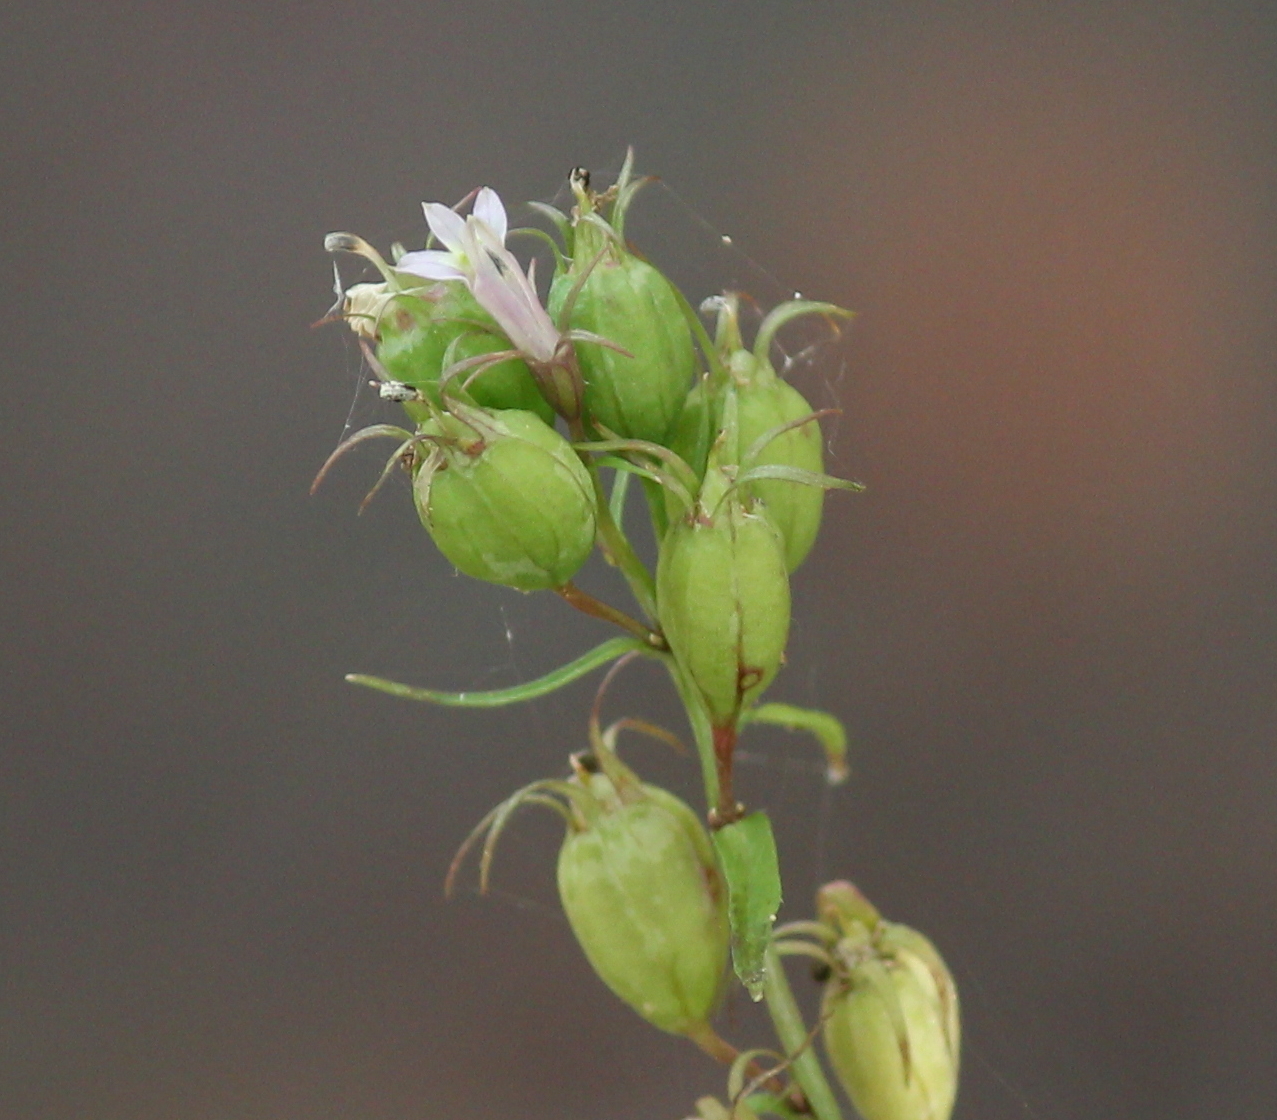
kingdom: Plantae
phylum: Tracheophyta
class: Magnoliopsida
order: Asterales
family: Campanulaceae
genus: Lobelia
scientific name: Lobelia inflata
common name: Indian tobacco
